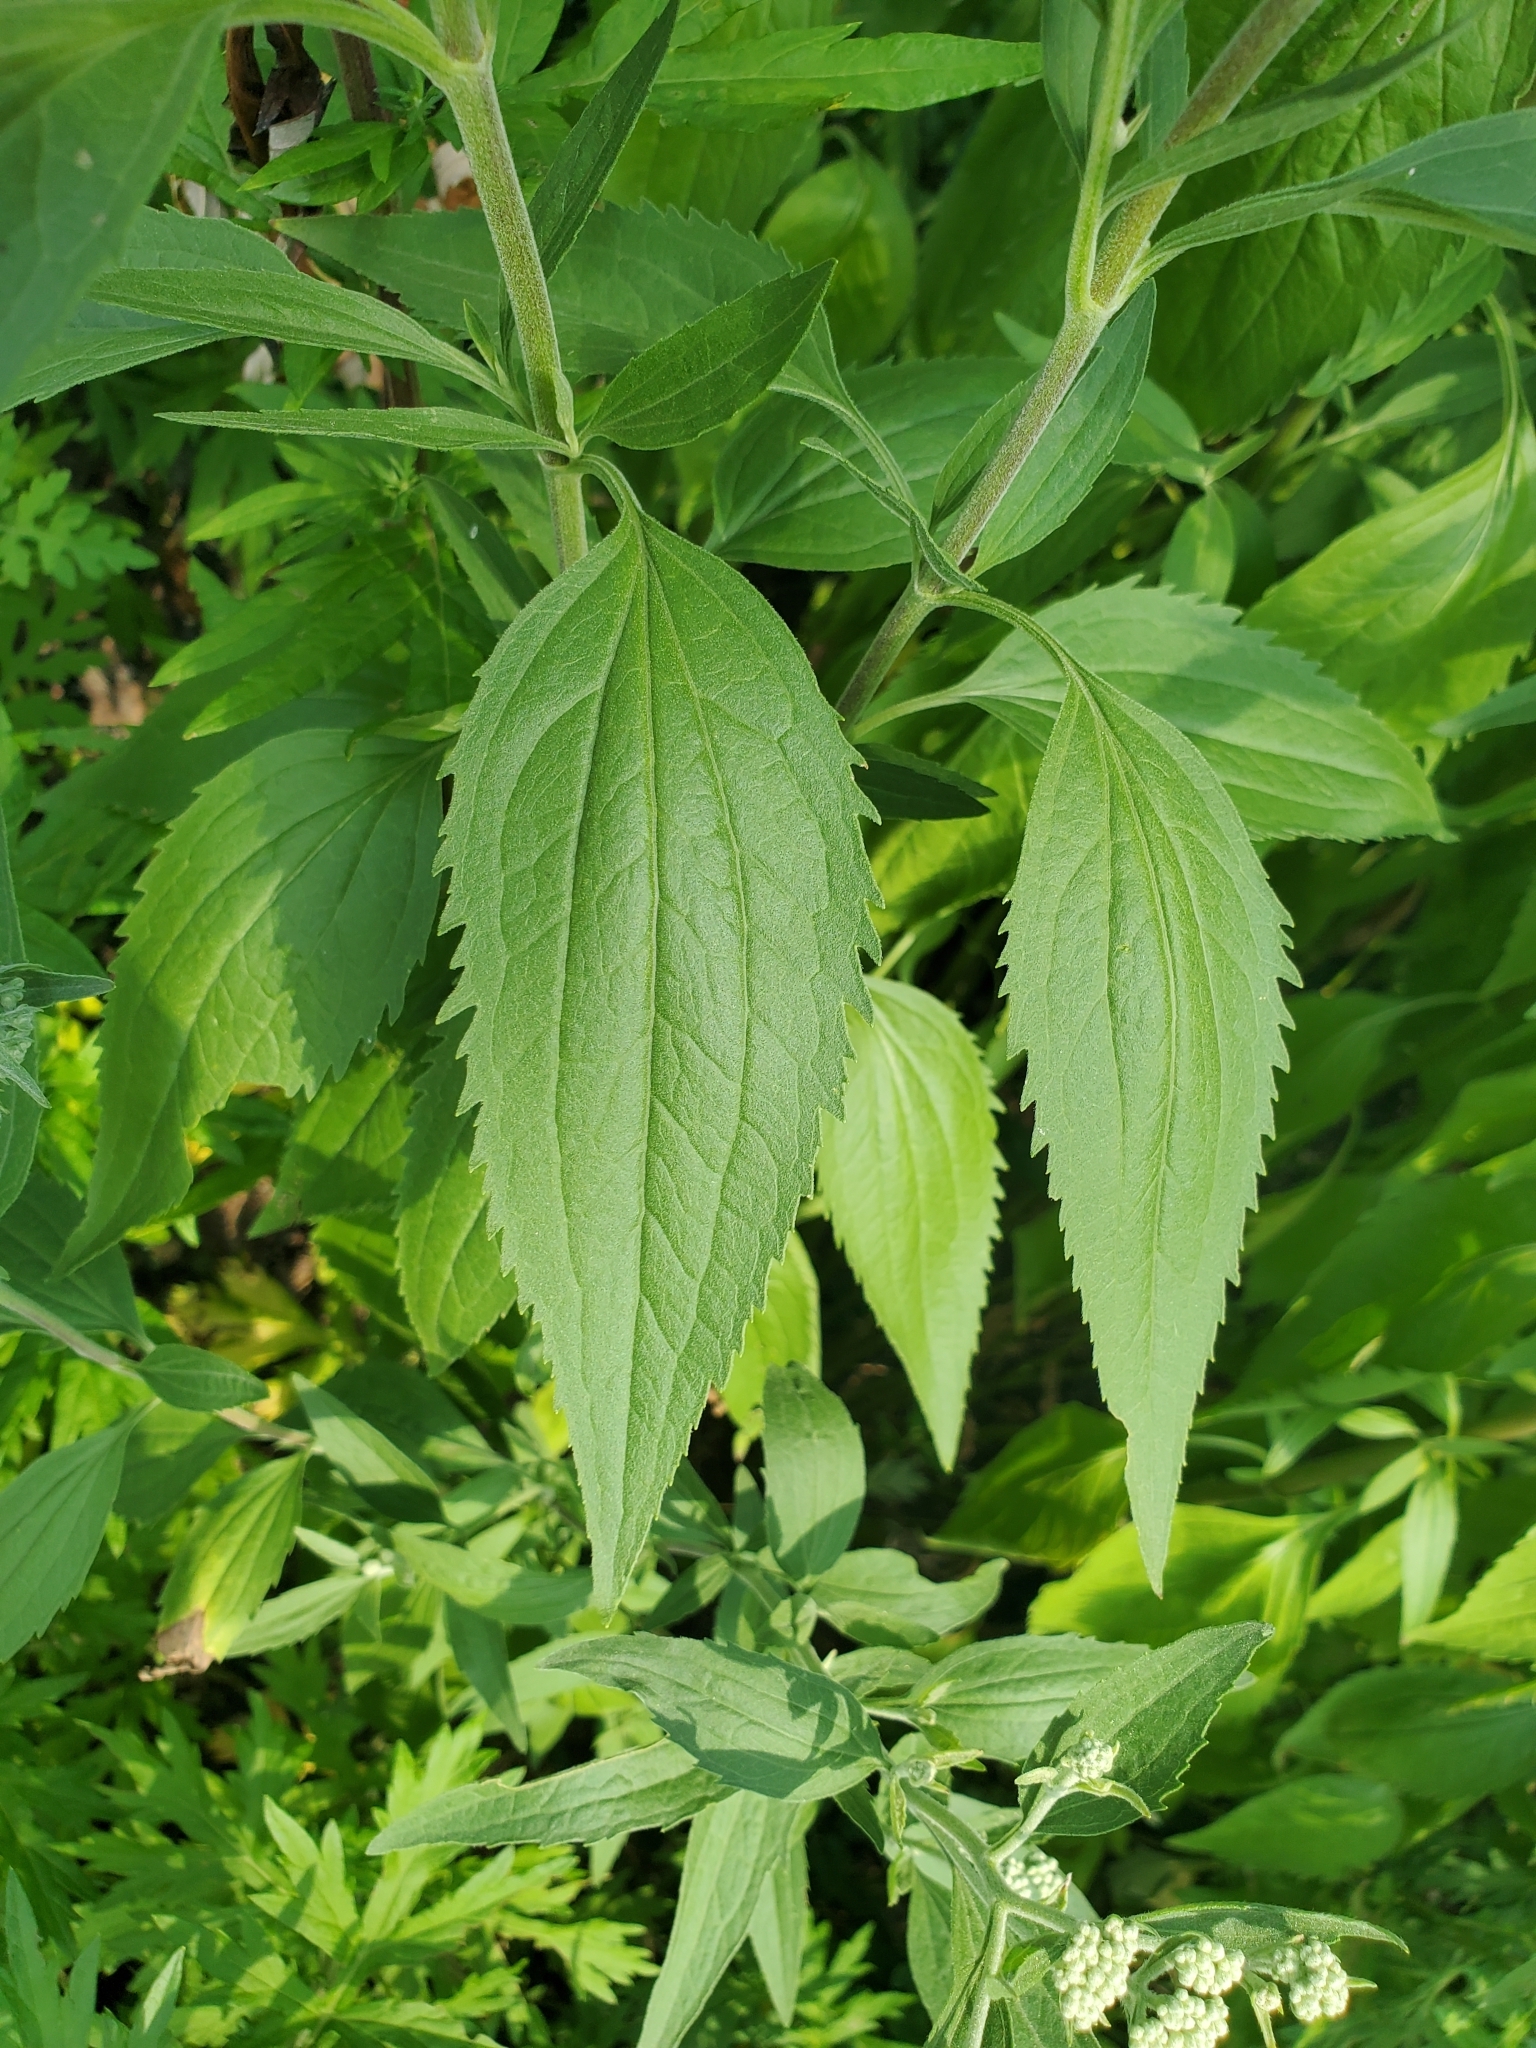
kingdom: Plantae
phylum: Tracheophyta
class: Magnoliopsida
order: Asterales
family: Asteraceae
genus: Eupatorium
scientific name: Eupatorium serotinum
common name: Late boneset
